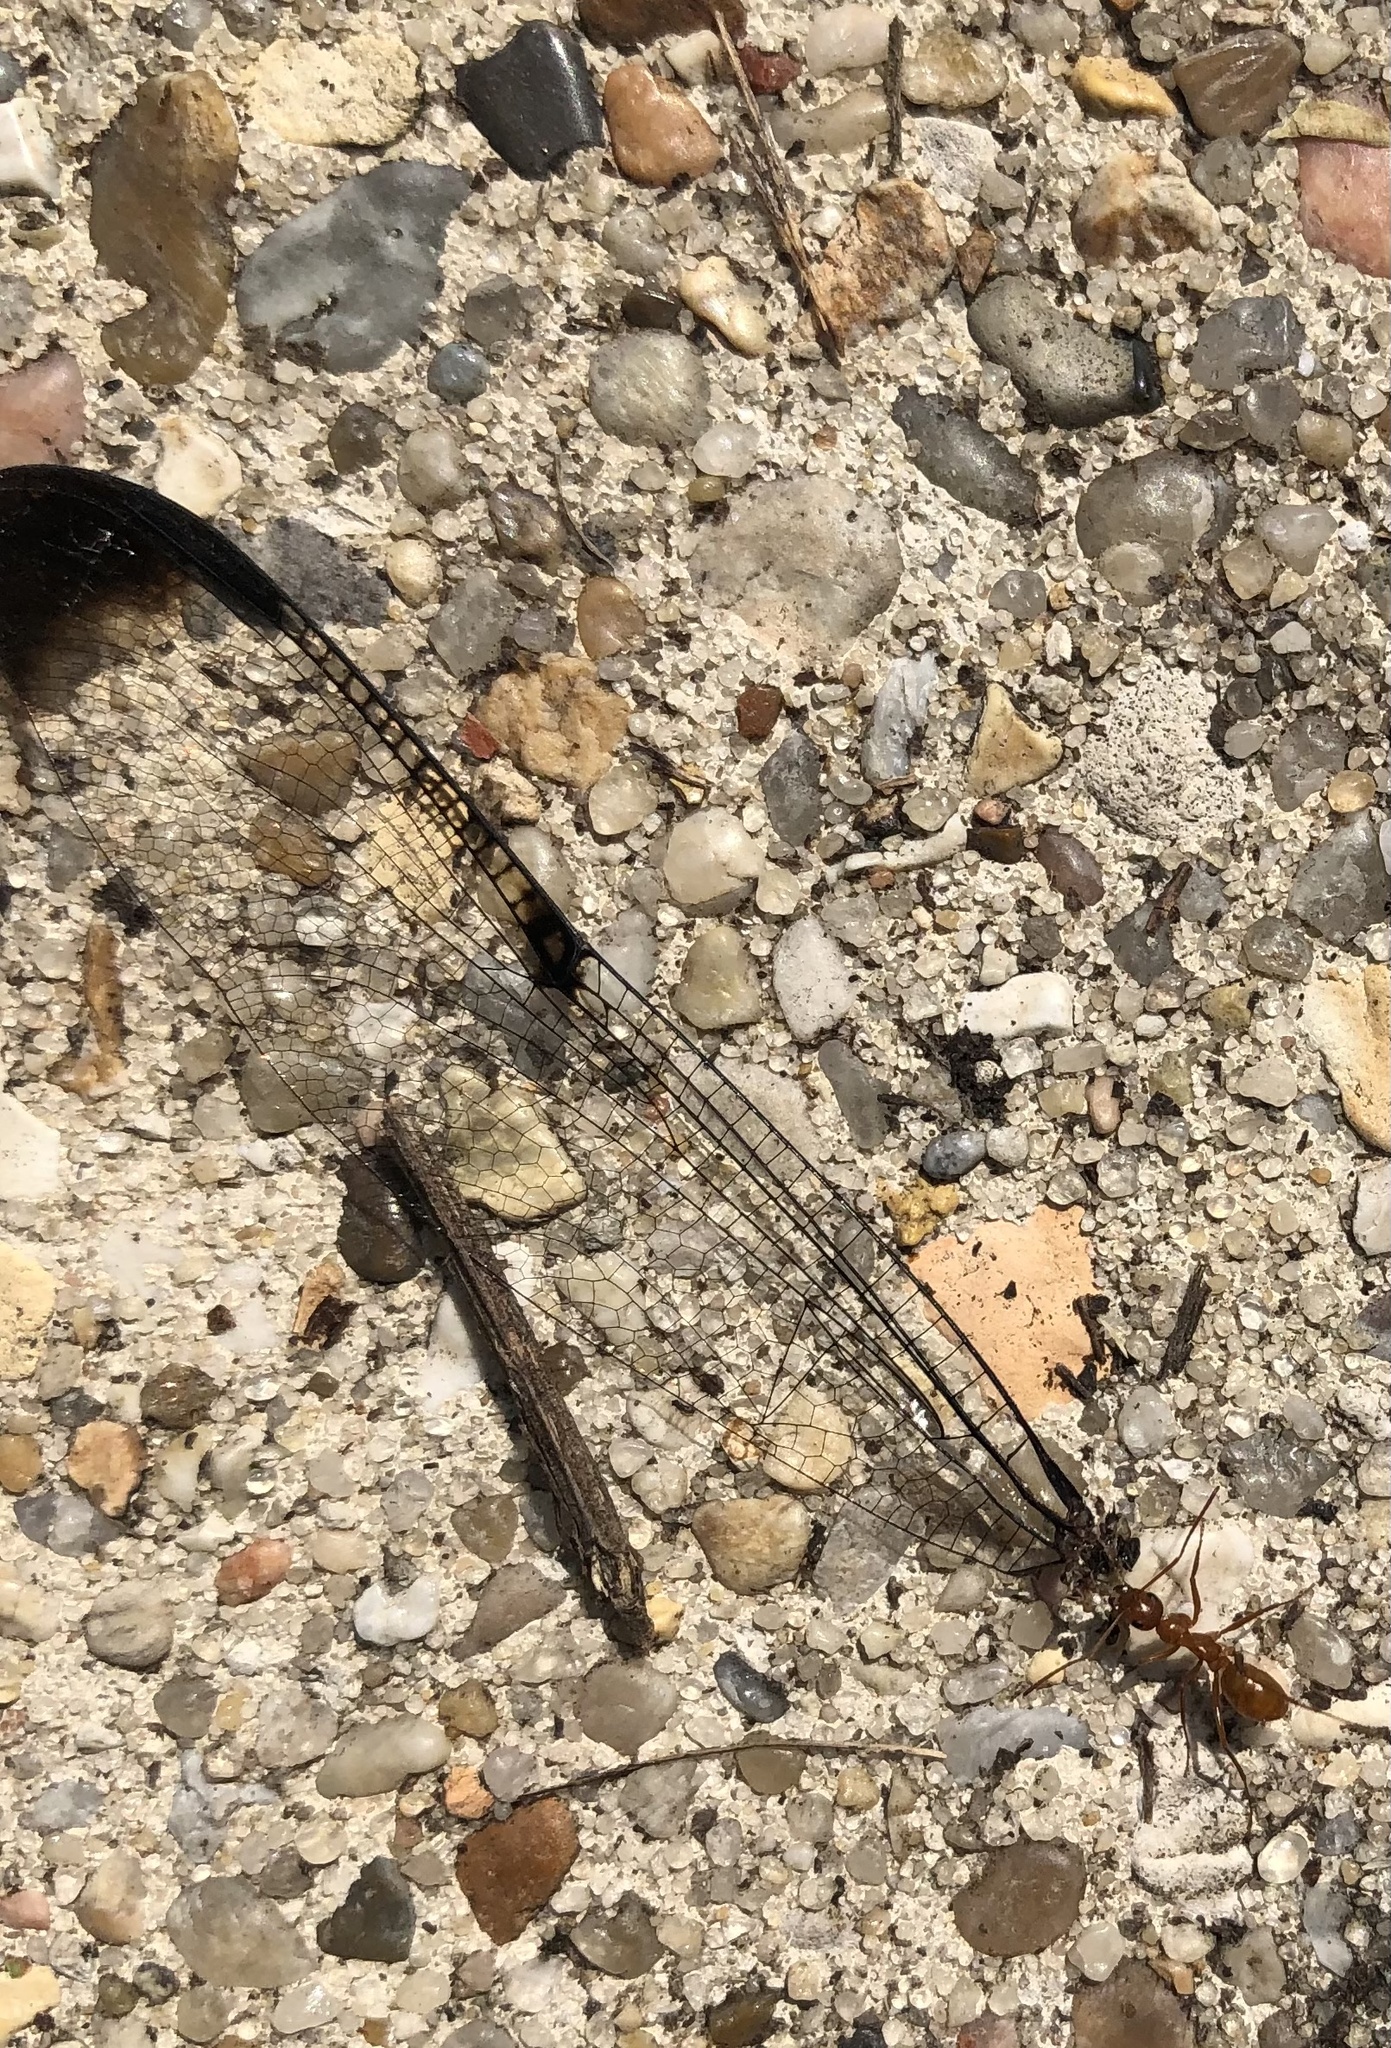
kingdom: Animalia
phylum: Arthropoda
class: Insecta
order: Hymenoptera
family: Formicidae
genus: Formica
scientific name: Formica pallidefulva
